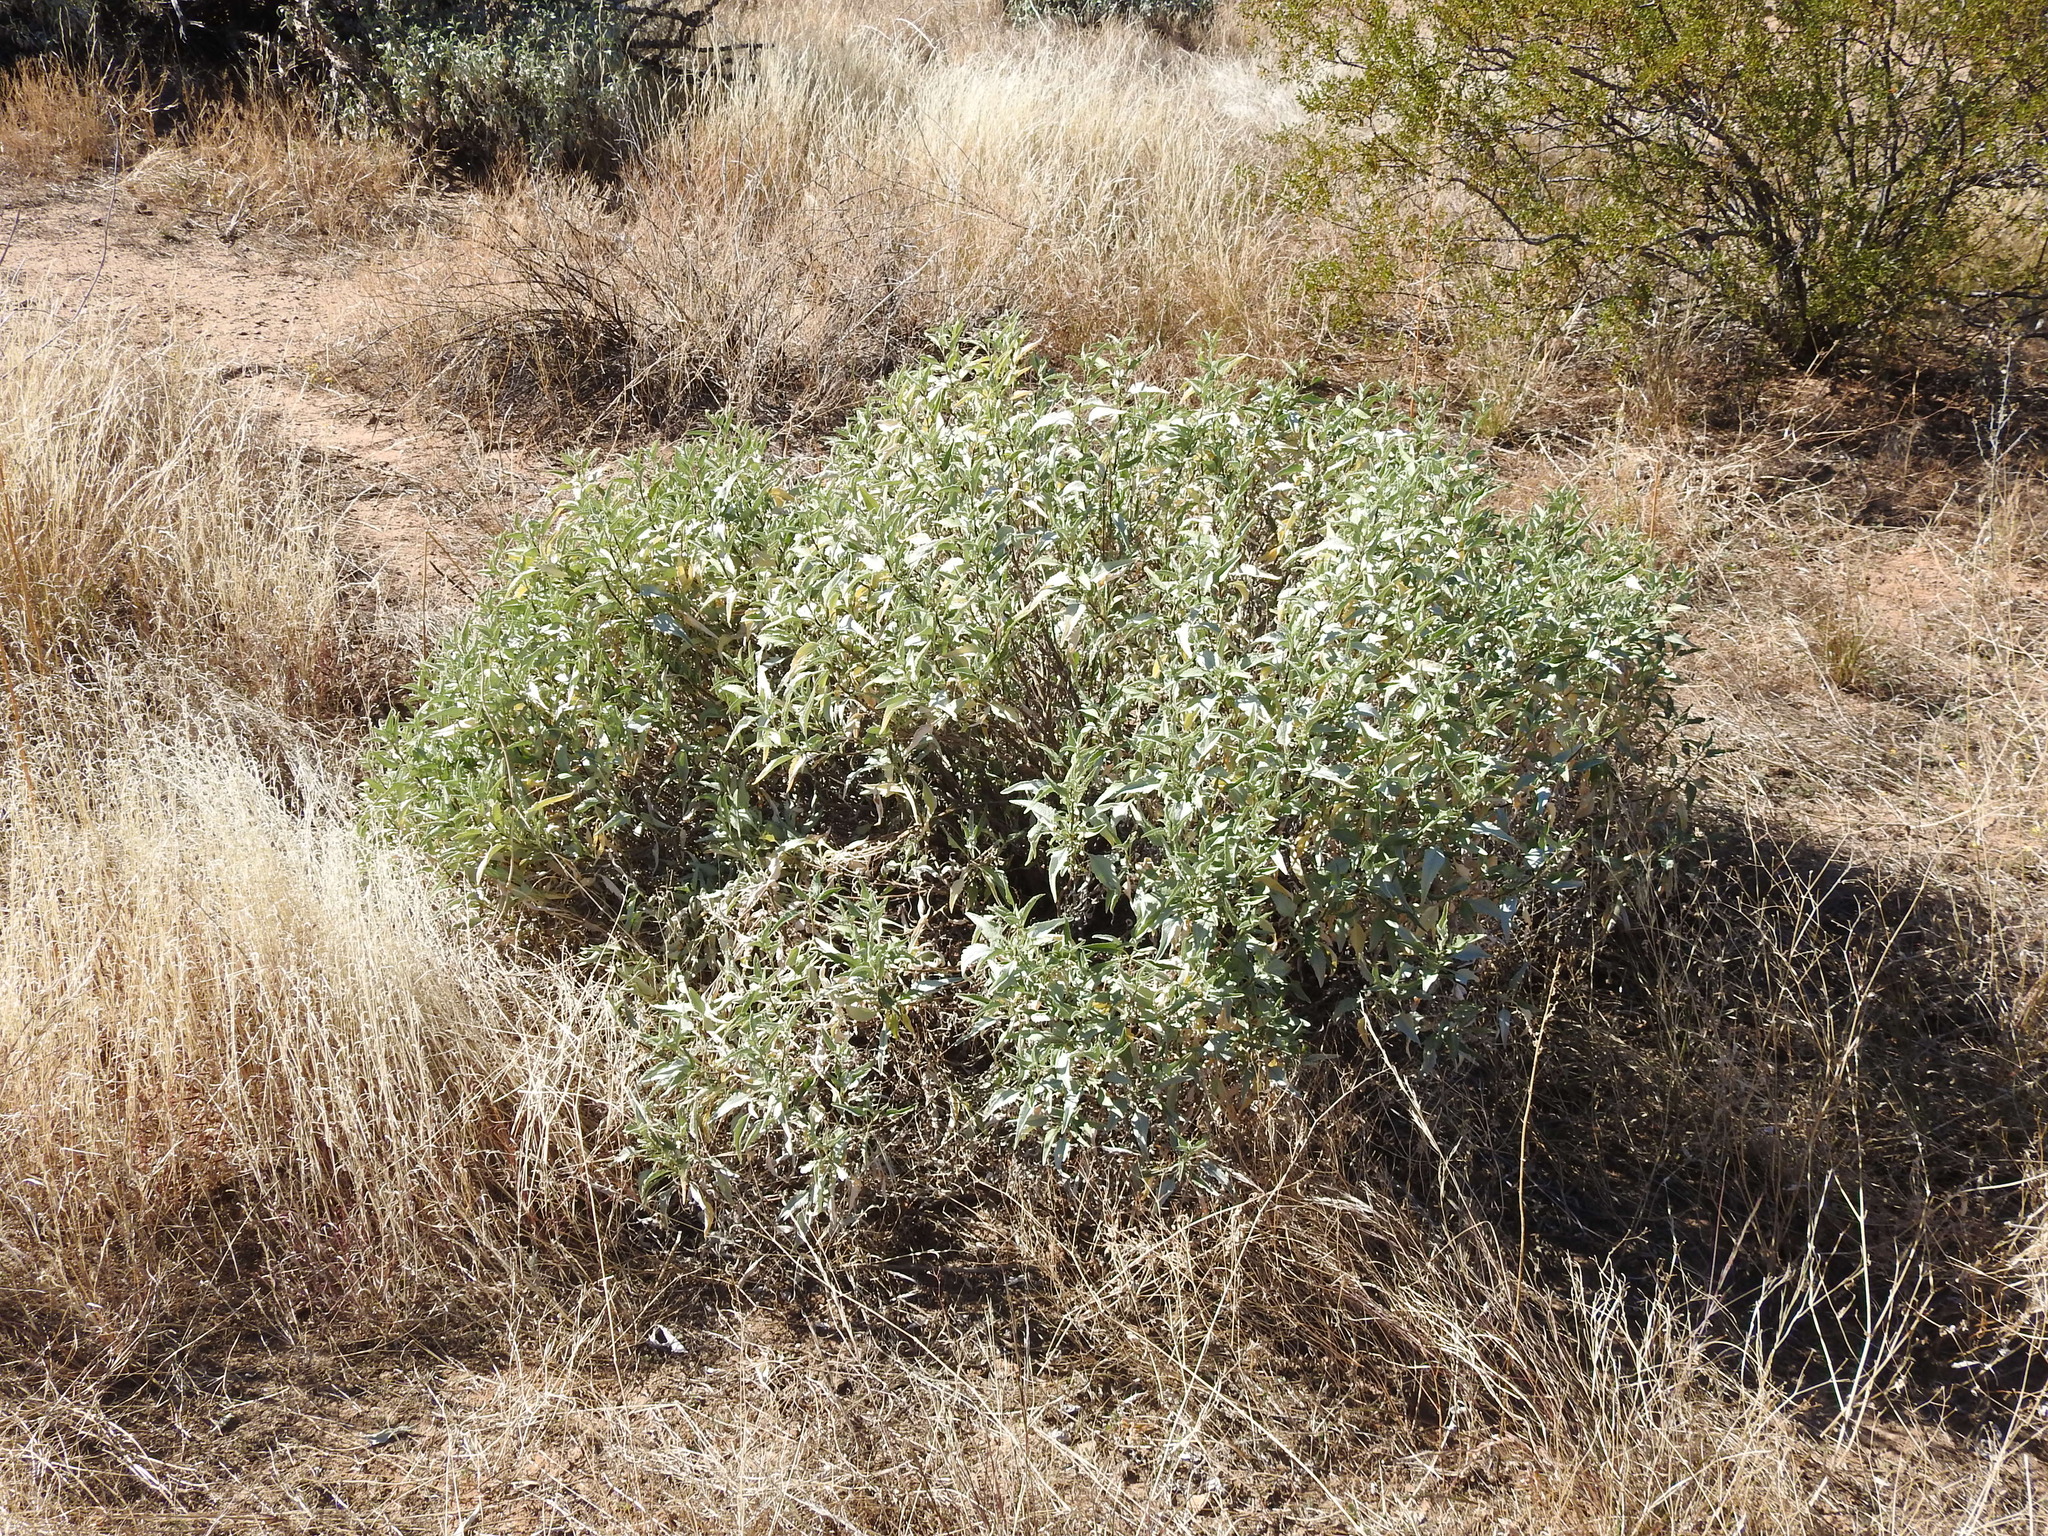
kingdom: Plantae
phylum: Tracheophyta
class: Magnoliopsida
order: Asterales
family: Asteraceae
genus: Ambrosia
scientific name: Ambrosia deltoidea
